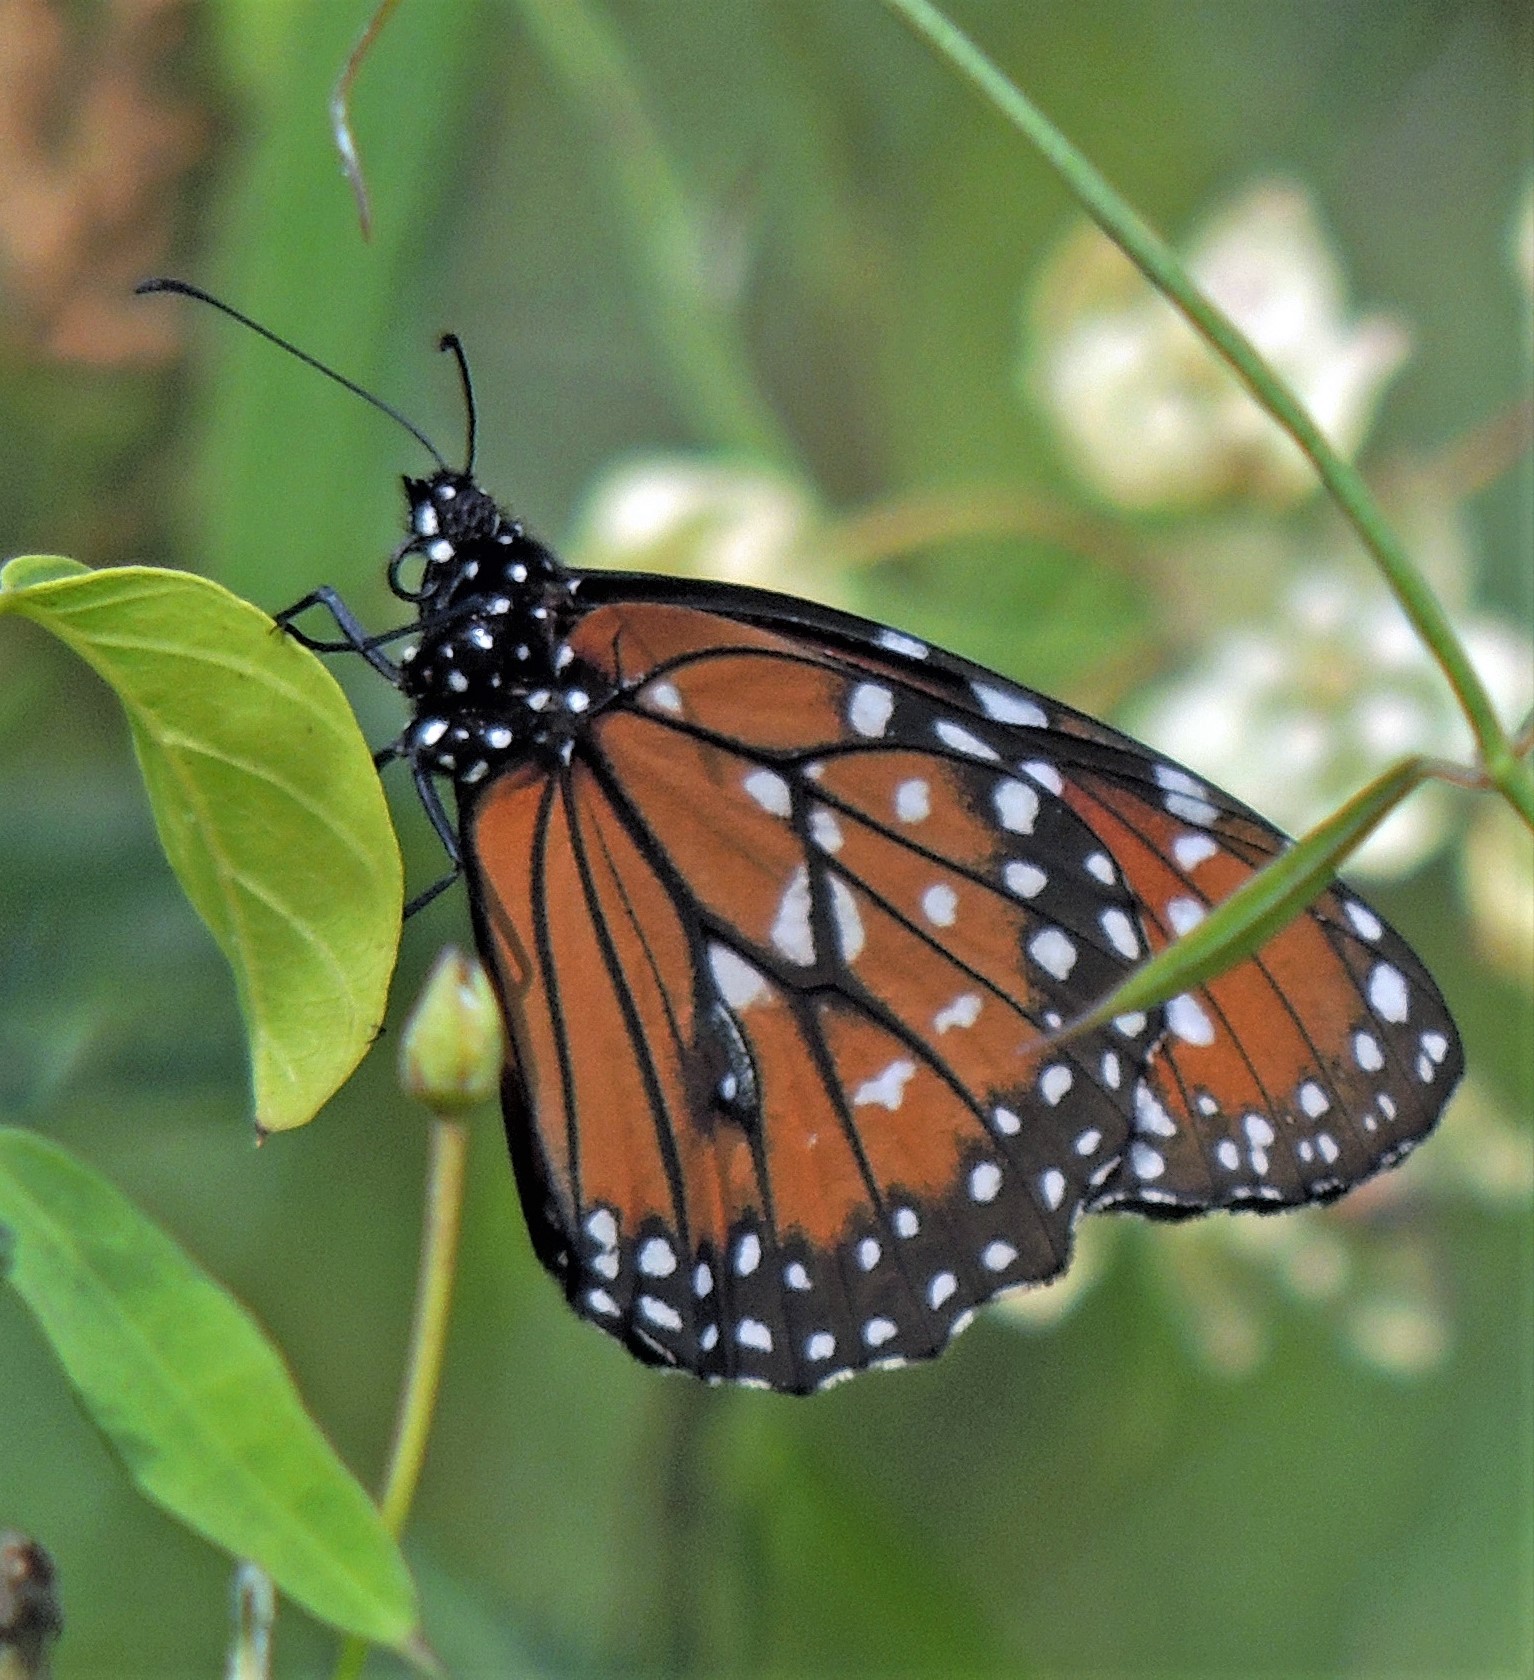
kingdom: Animalia
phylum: Arthropoda
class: Insecta
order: Lepidoptera
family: Nymphalidae
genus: Danaus
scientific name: Danaus eresimus
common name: Soldier
